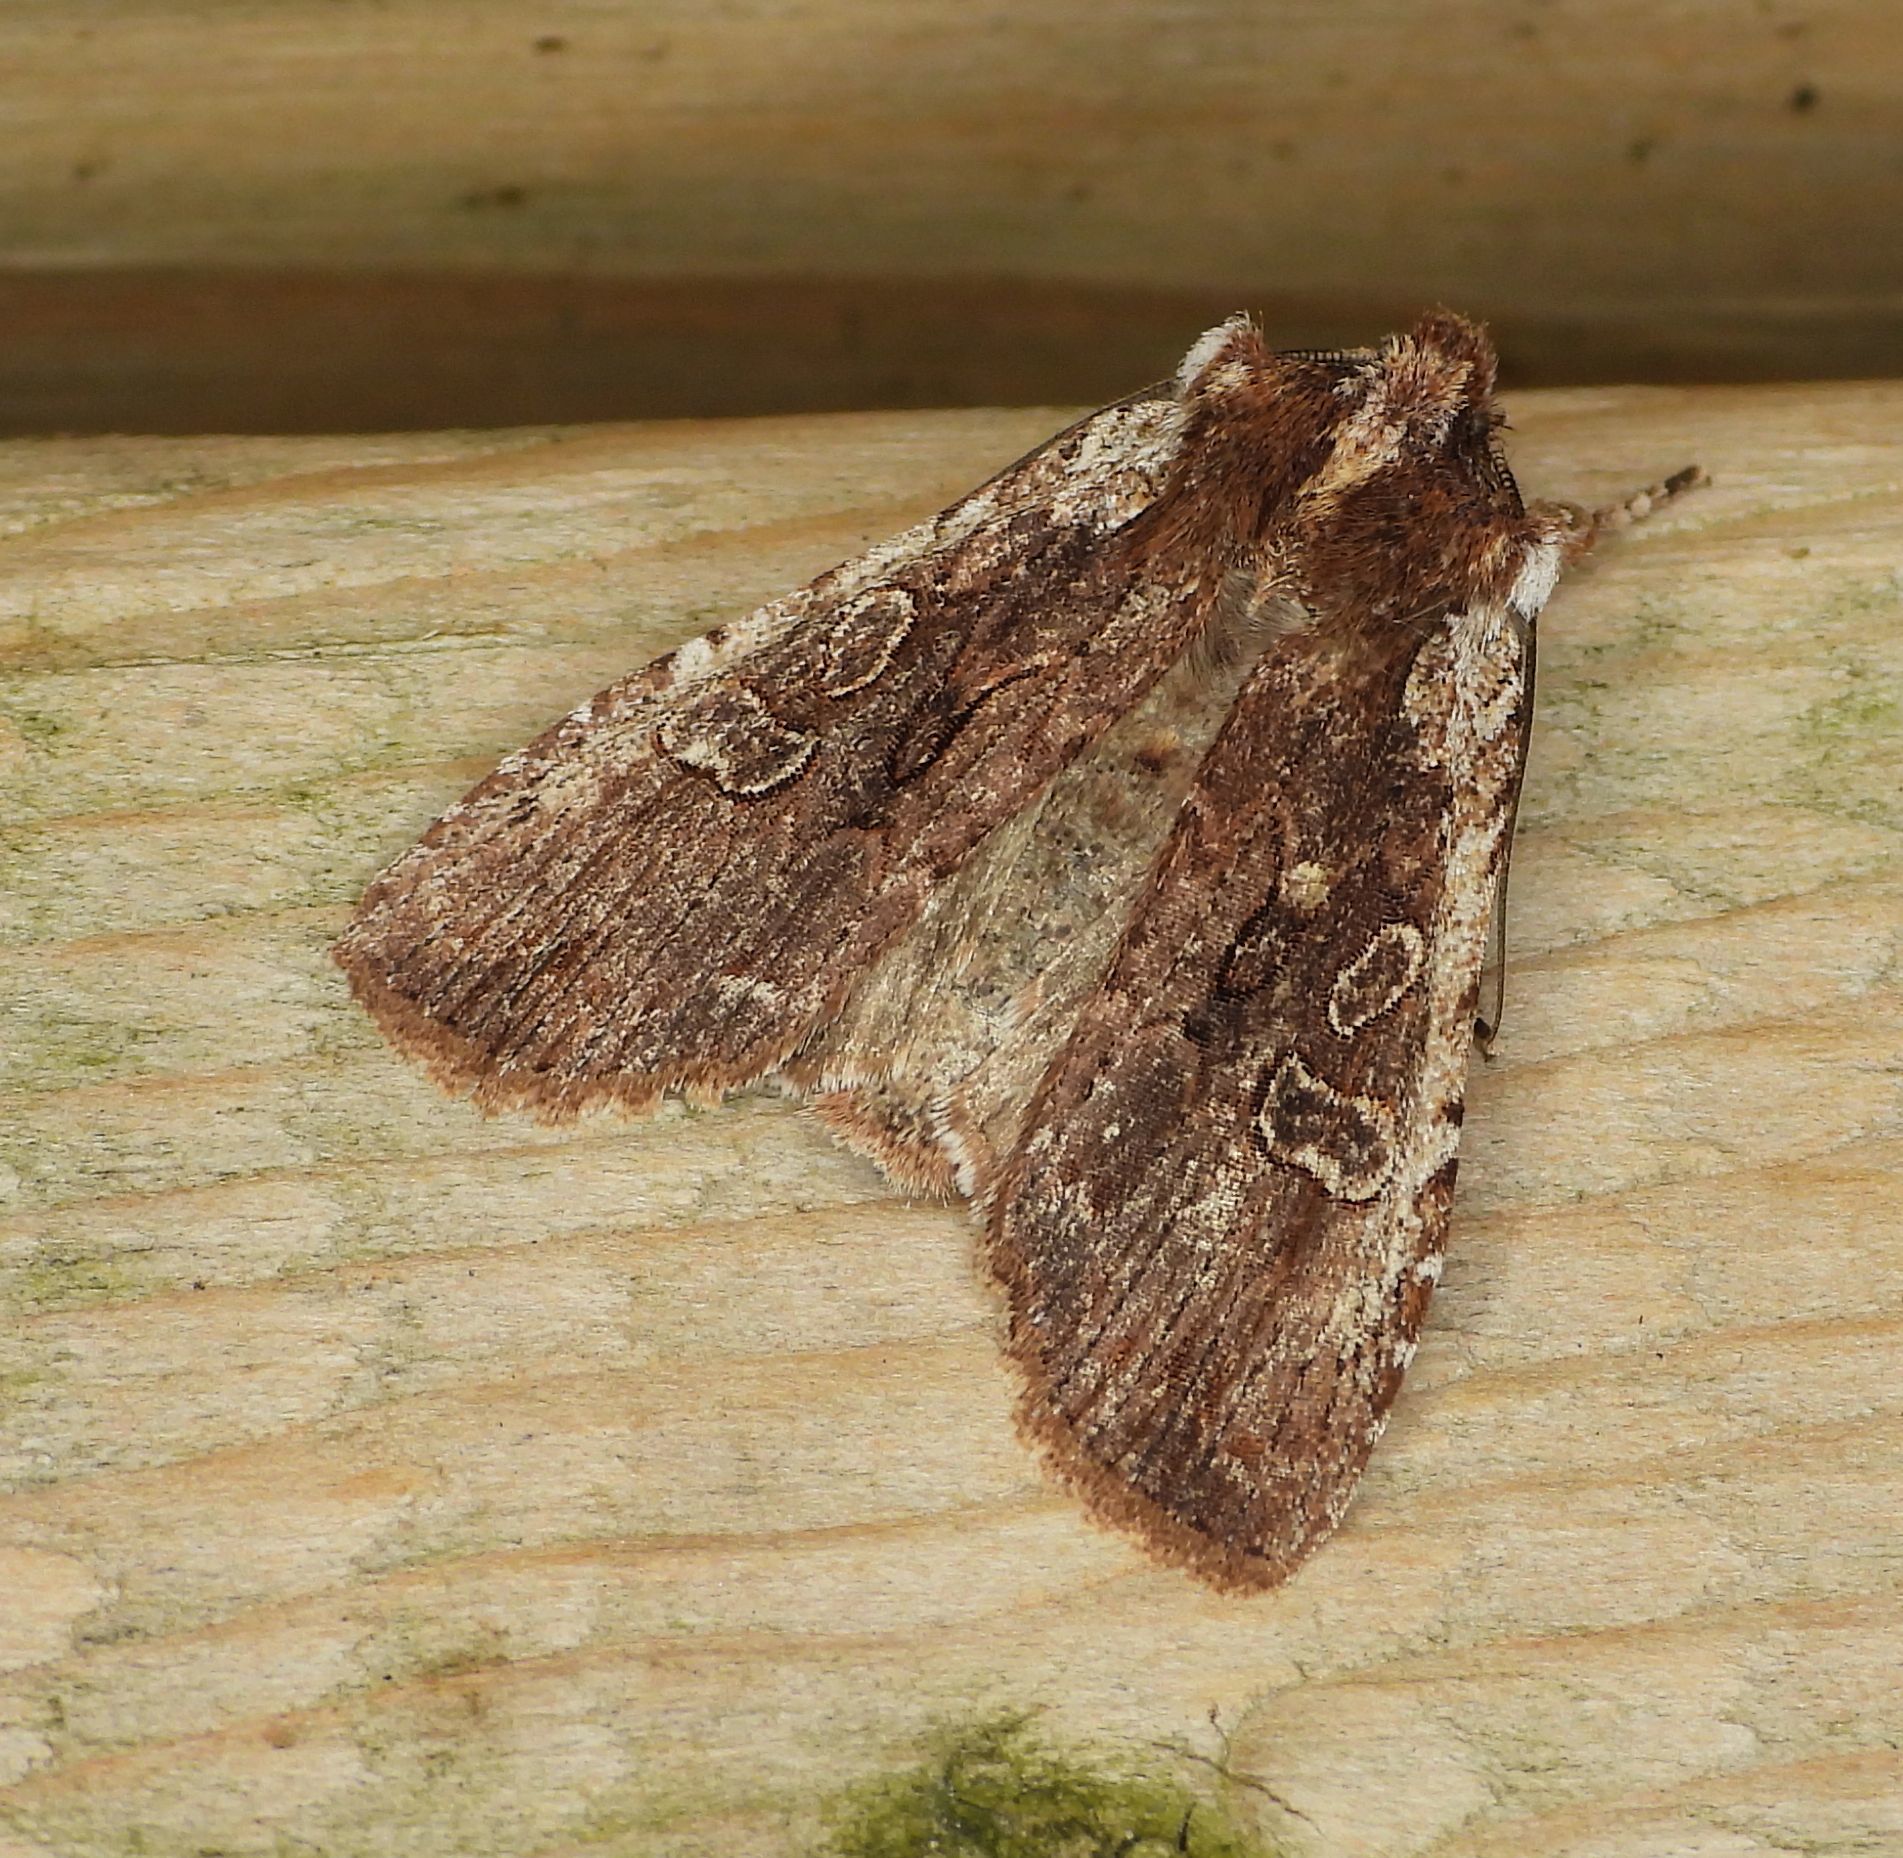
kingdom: Animalia
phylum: Arthropoda
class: Insecta
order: Lepidoptera
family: Noctuidae
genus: Lithophane
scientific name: Lithophane oriunda
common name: Immigrant pinion moth
